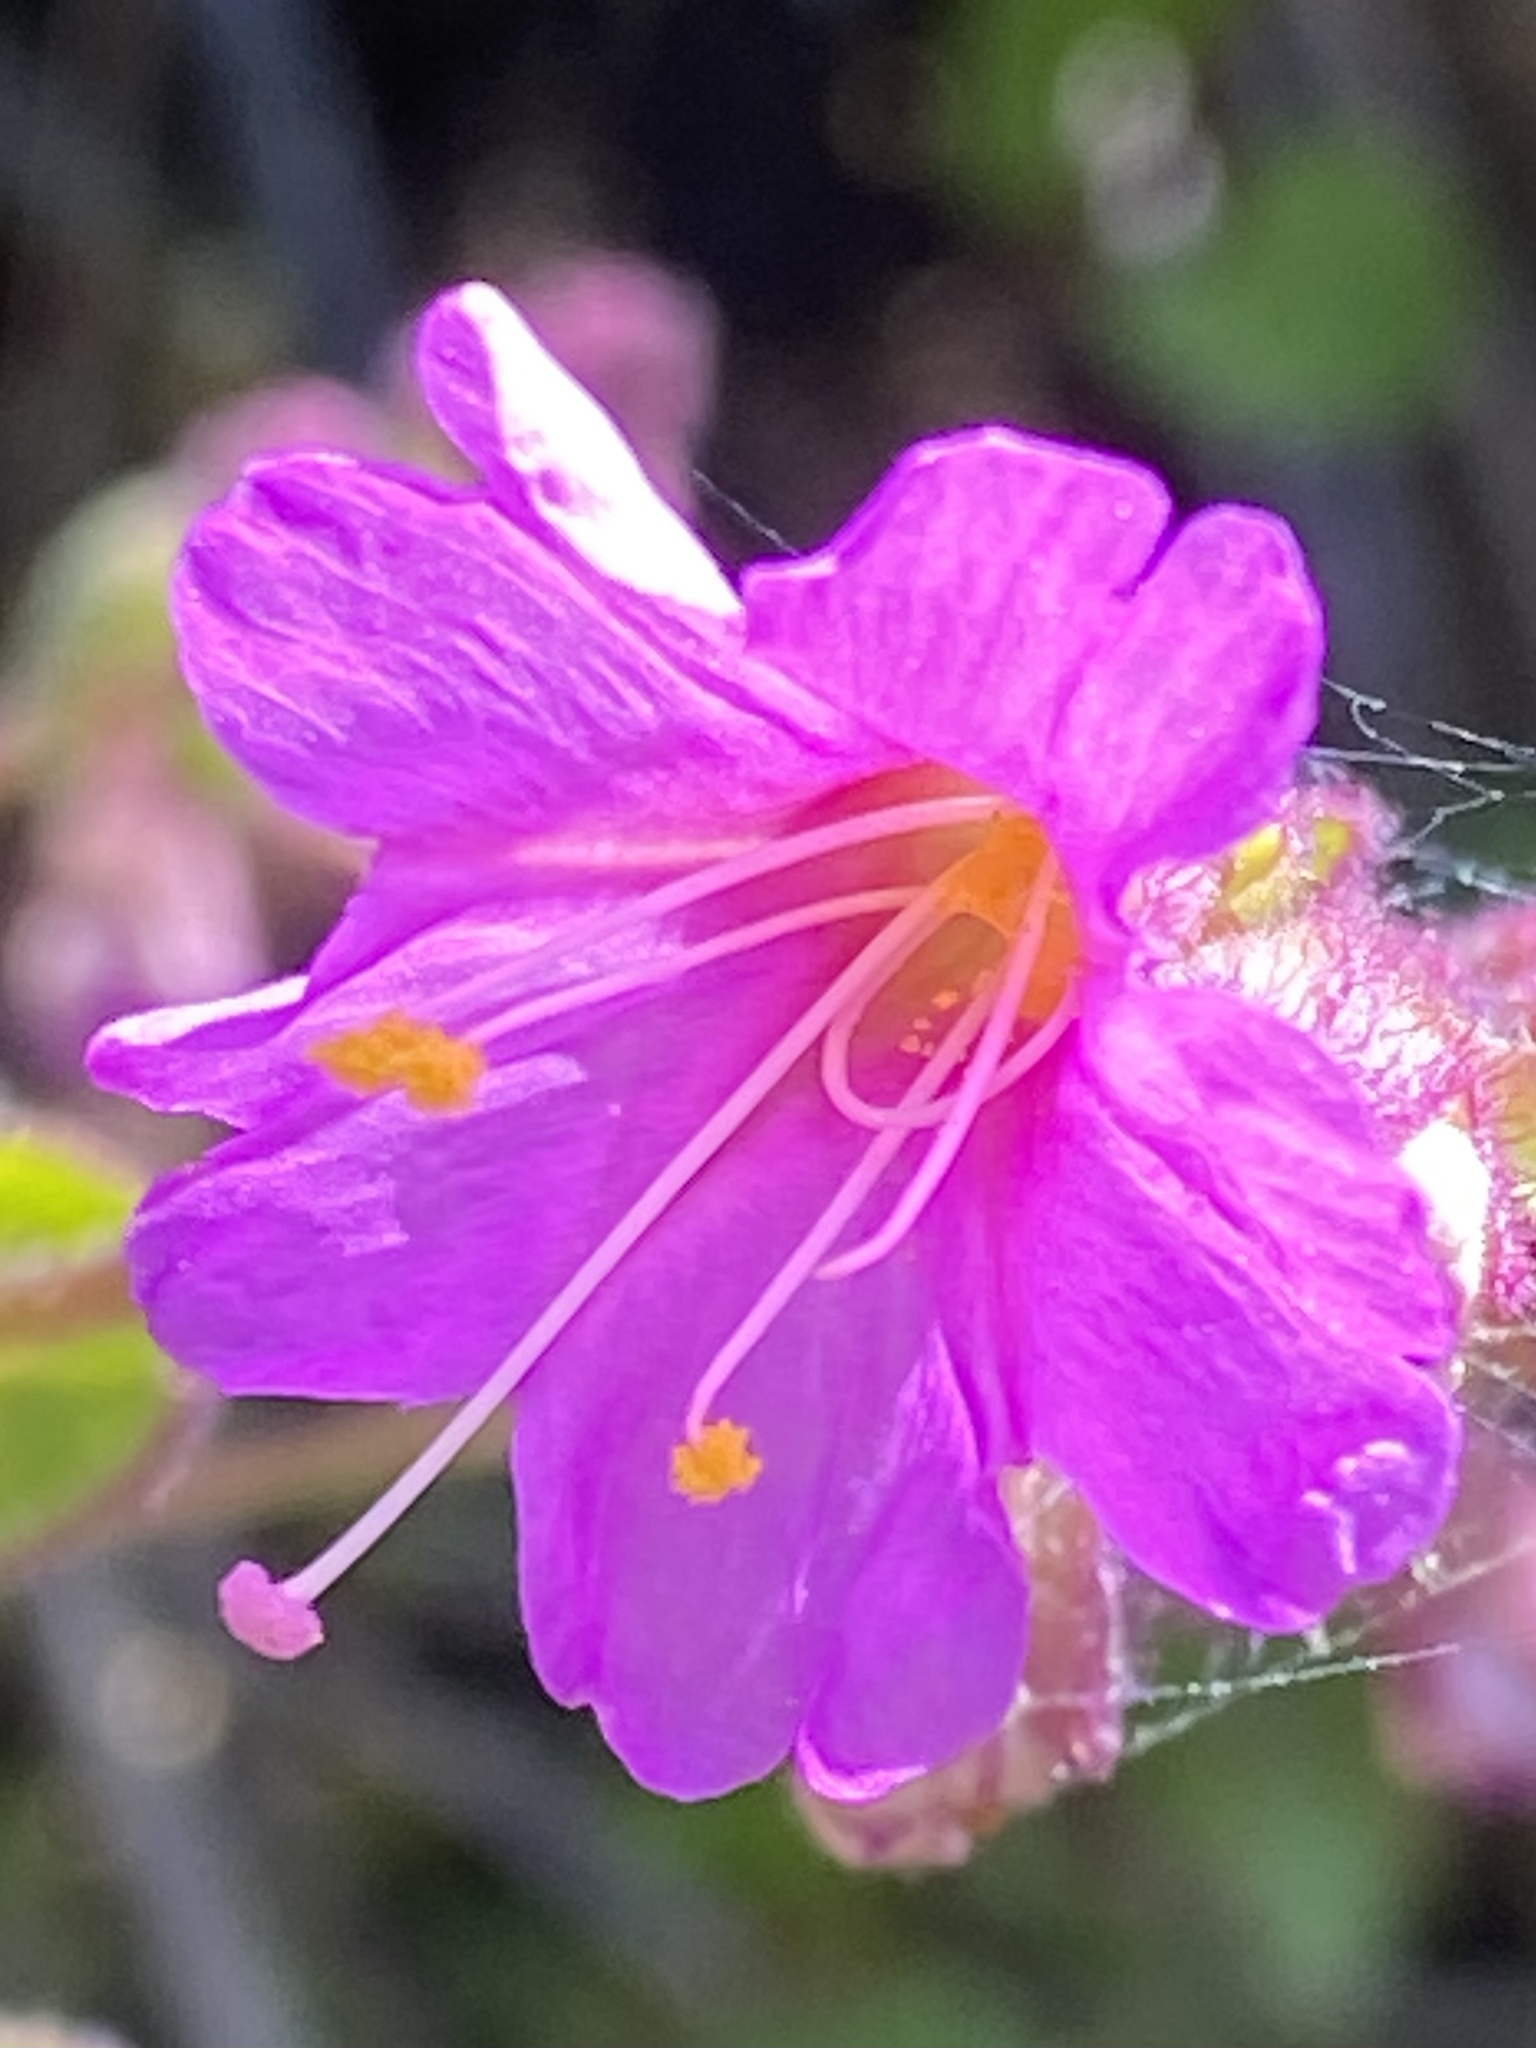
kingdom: Plantae
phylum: Tracheophyta
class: Magnoliopsida
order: Caryophyllales
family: Nyctaginaceae
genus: Mirabilis
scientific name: Mirabilis laevis
